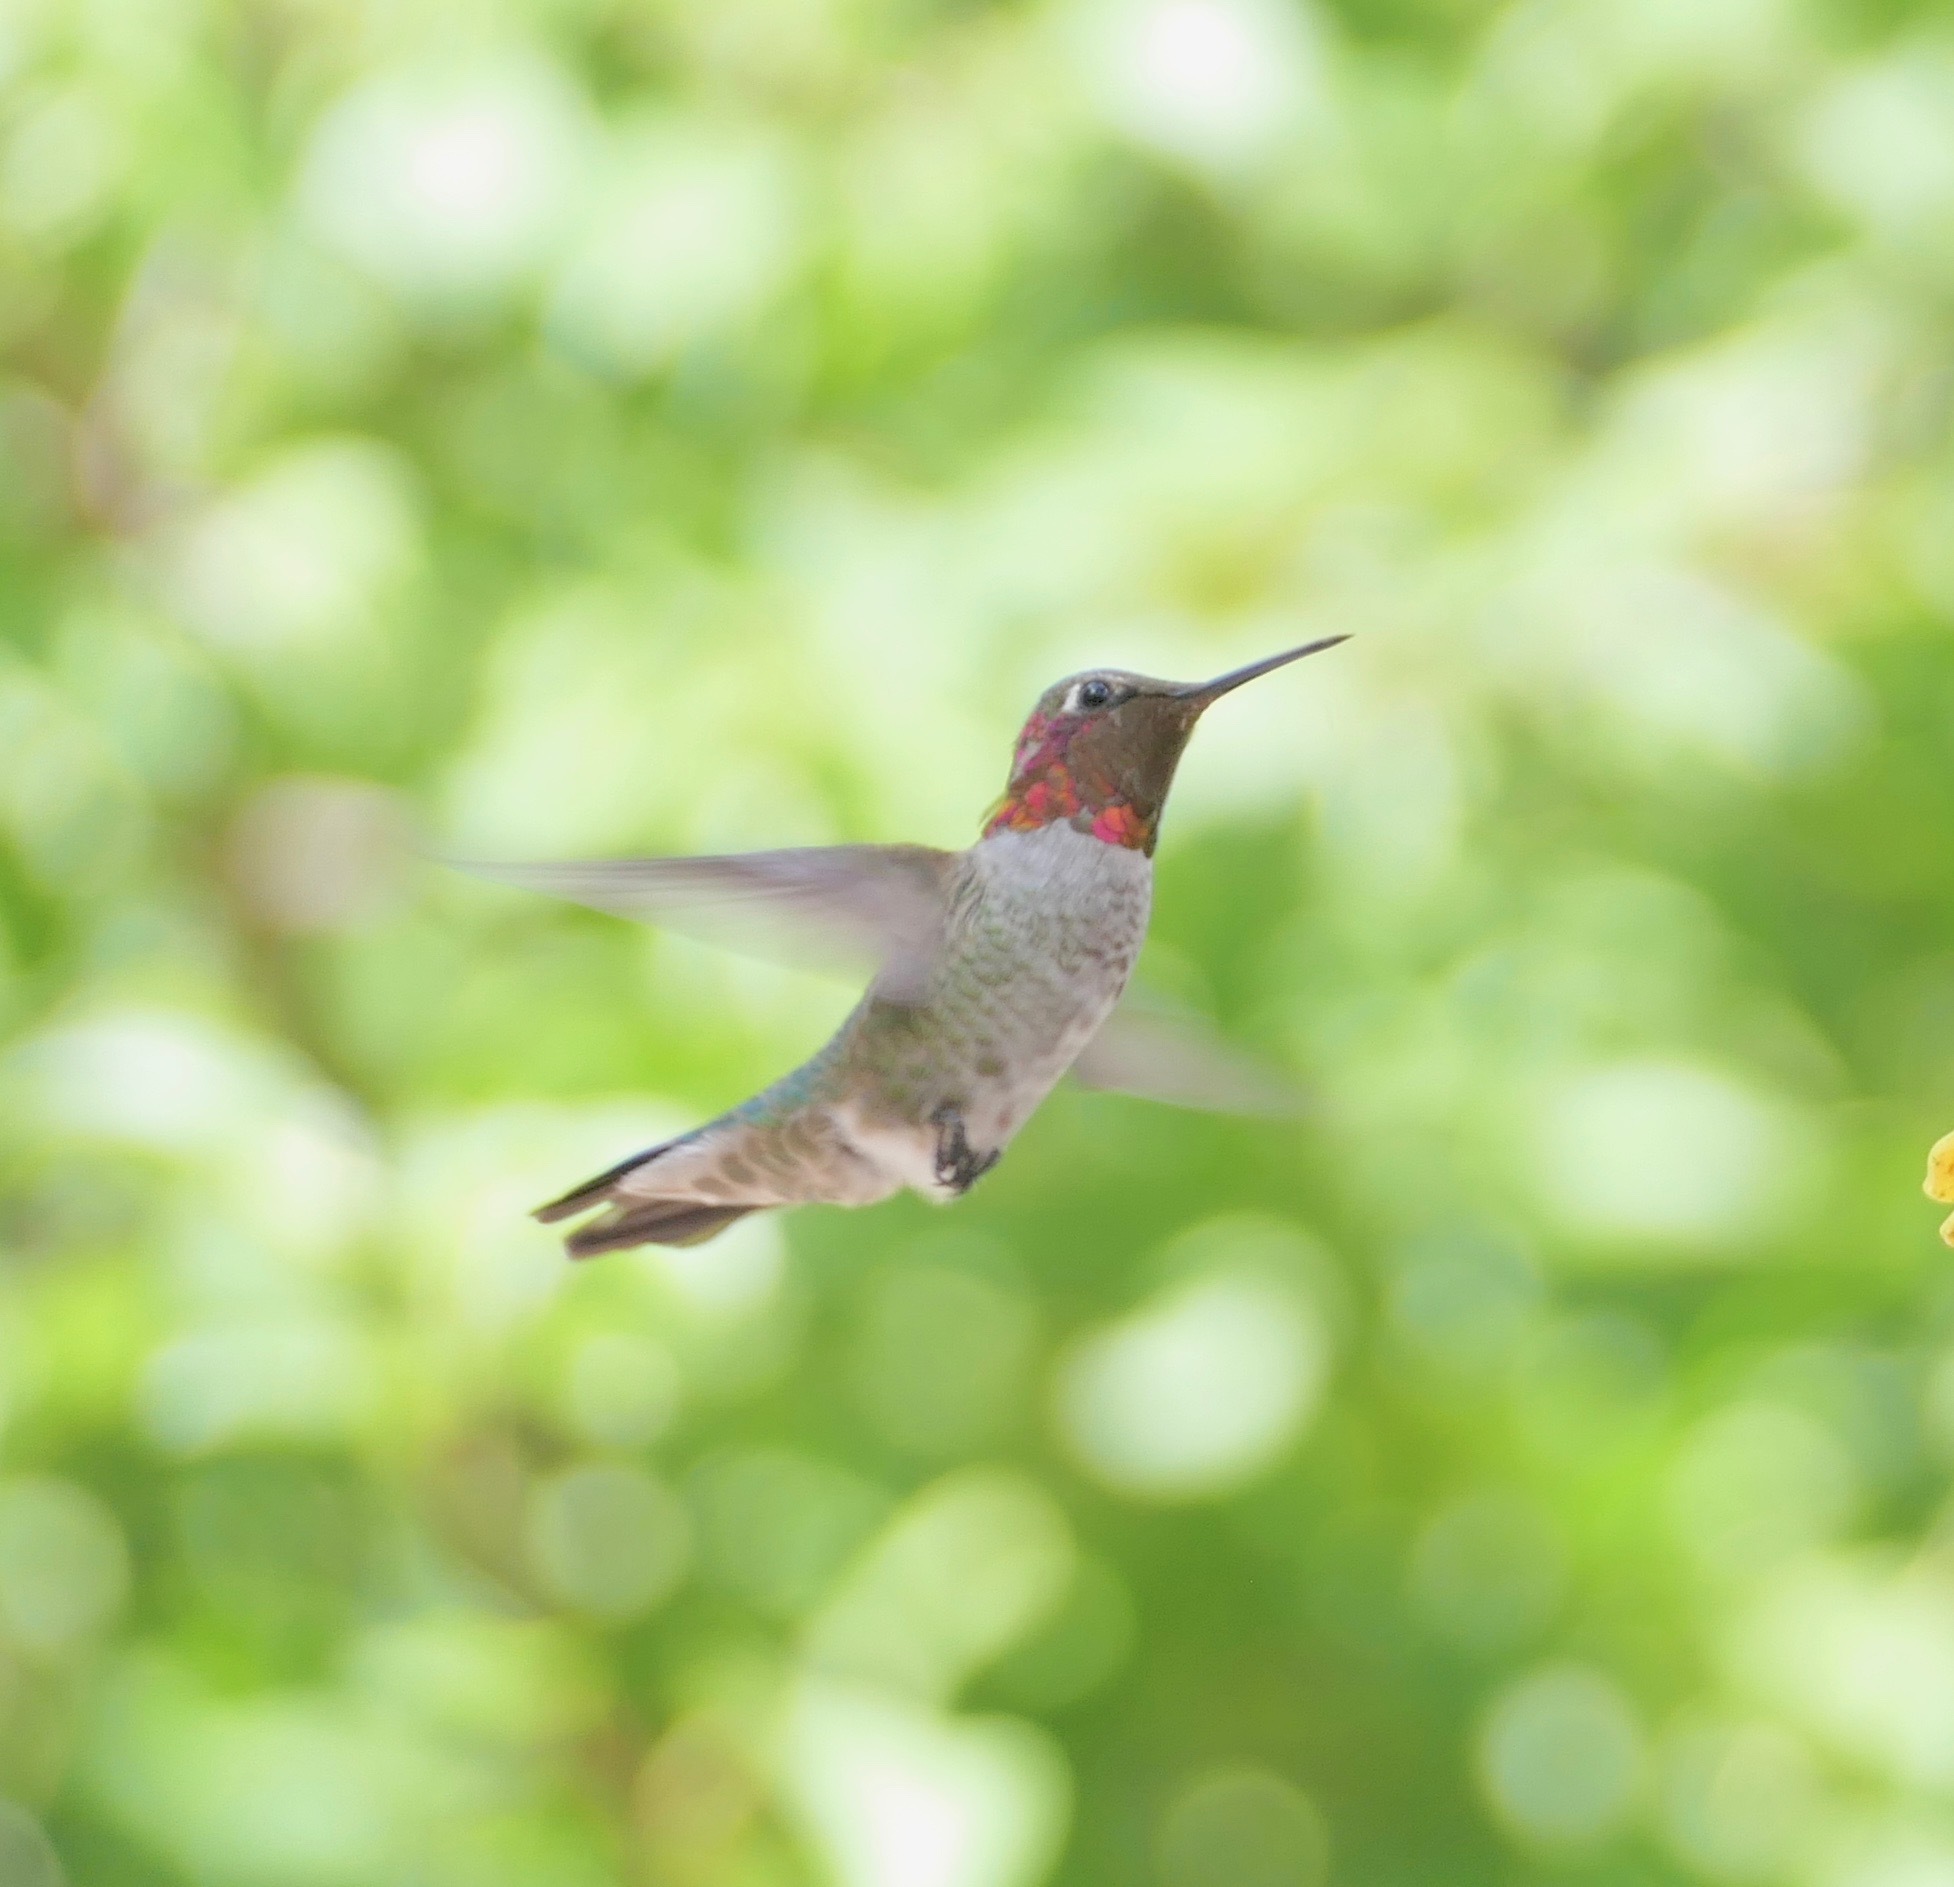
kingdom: Animalia
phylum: Chordata
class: Aves
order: Apodiformes
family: Trochilidae
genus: Calypte
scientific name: Calypte anna
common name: Anna's hummingbird
